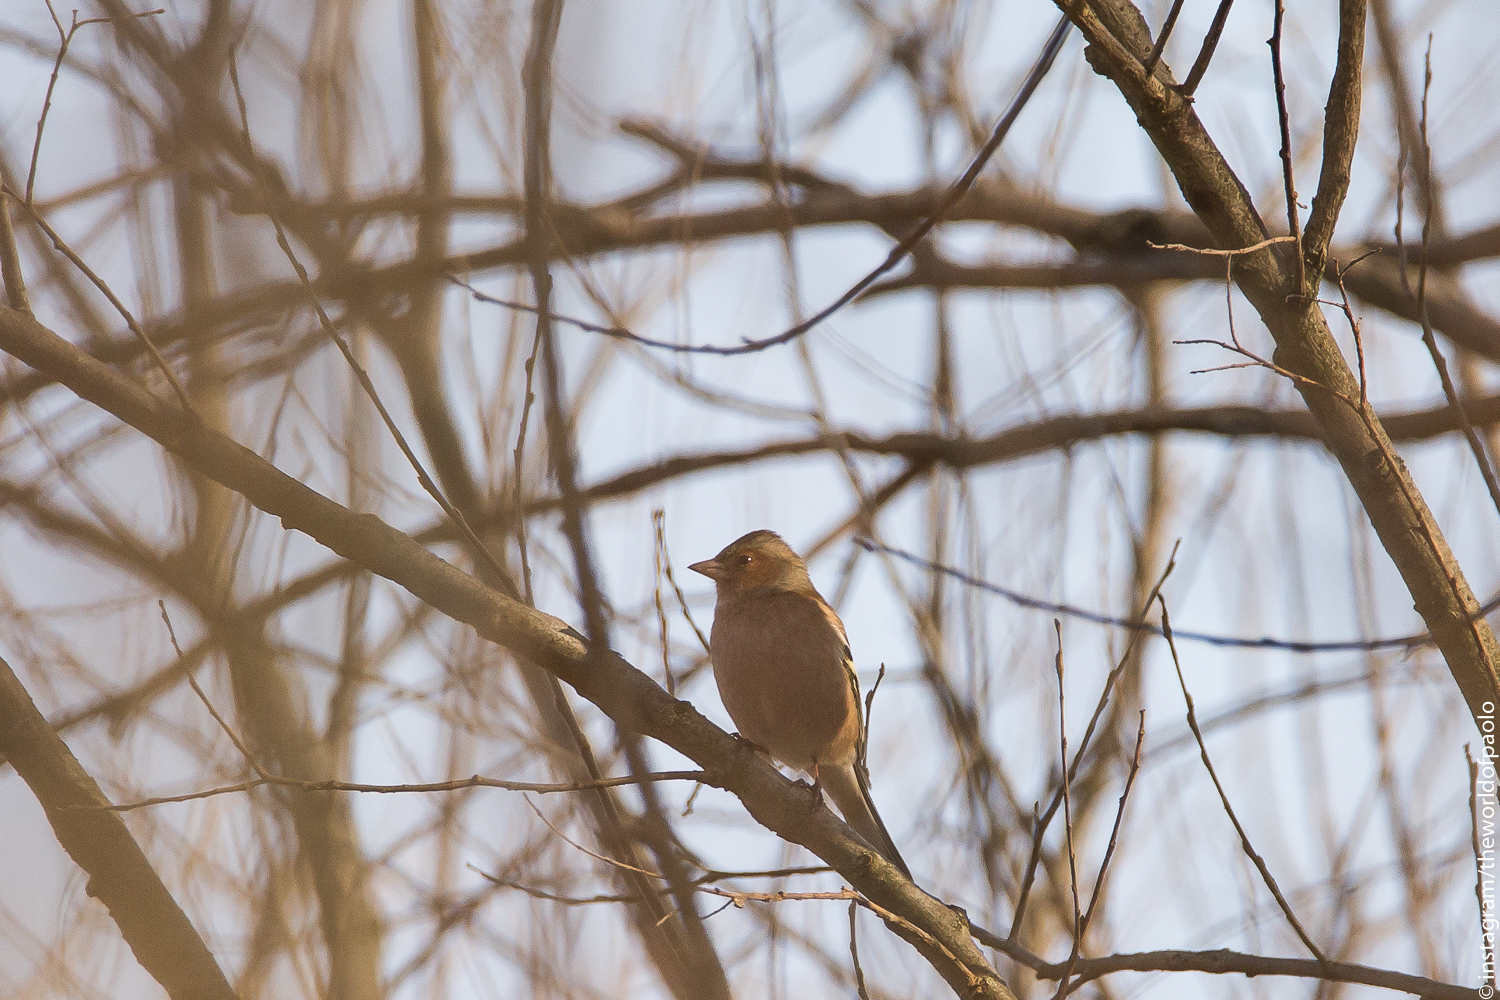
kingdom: Animalia
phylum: Chordata
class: Aves
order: Passeriformes
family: Fringillidae
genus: Fringilla
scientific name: Fringilla coelebs
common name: Common chaffinch
